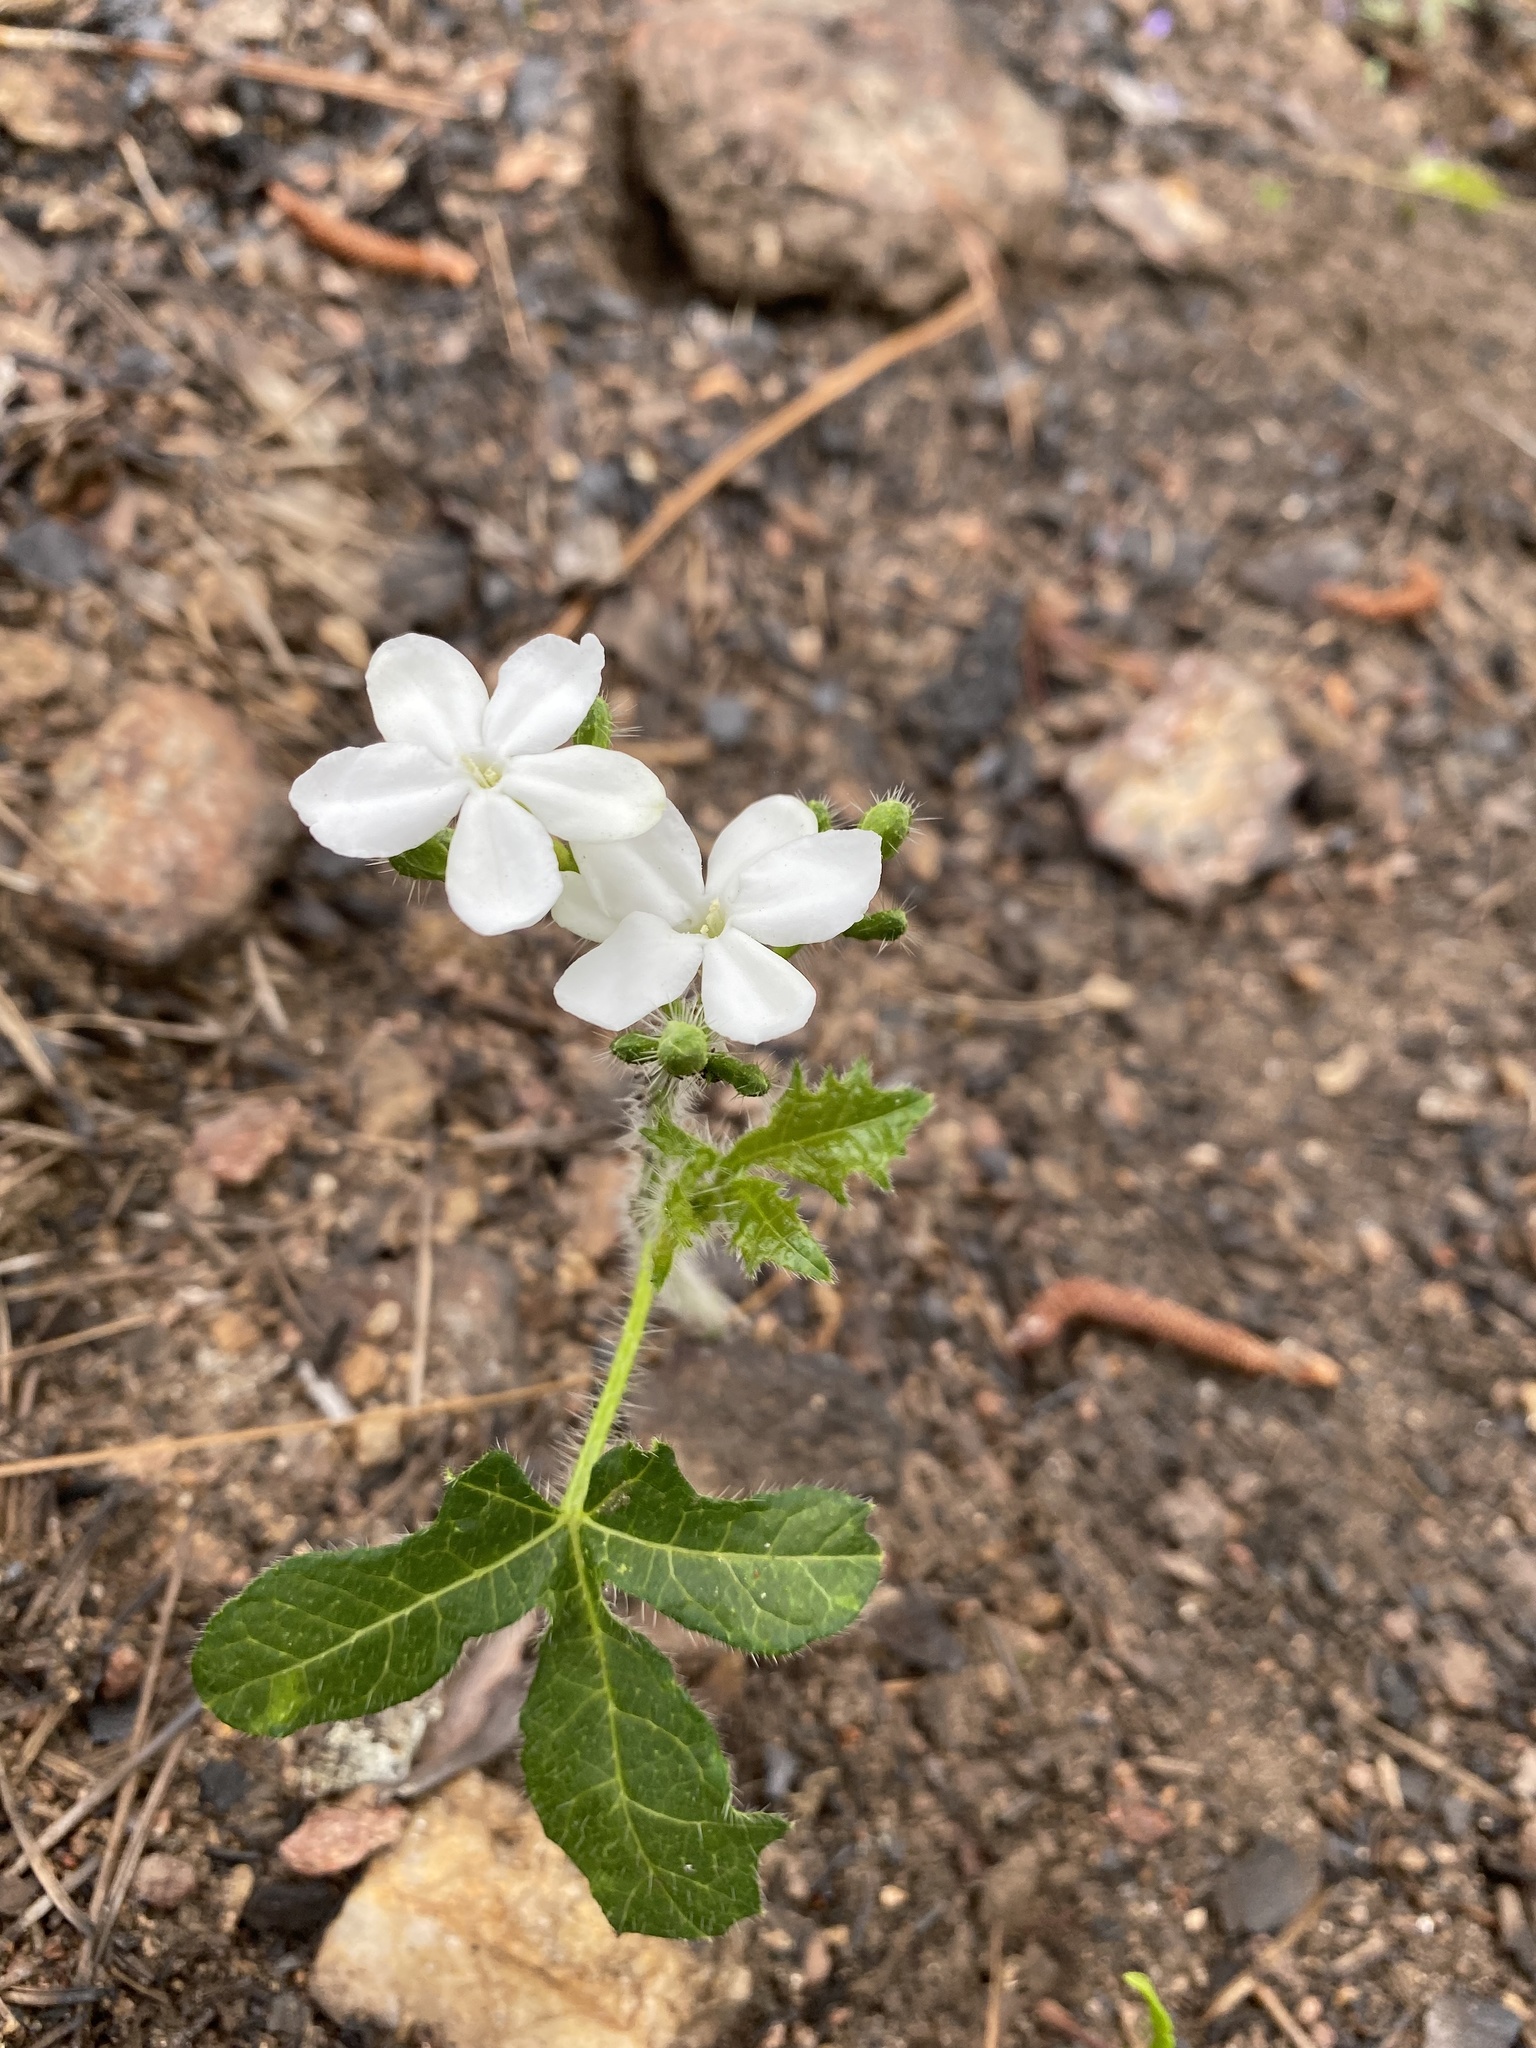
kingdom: Plantae
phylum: Tracheophyta
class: Magnoliopsida
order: Malpighiales
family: Euphorbiaceae
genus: Cnidoscolus
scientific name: Cnidoscolus stimulosus
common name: Bull-nettle
